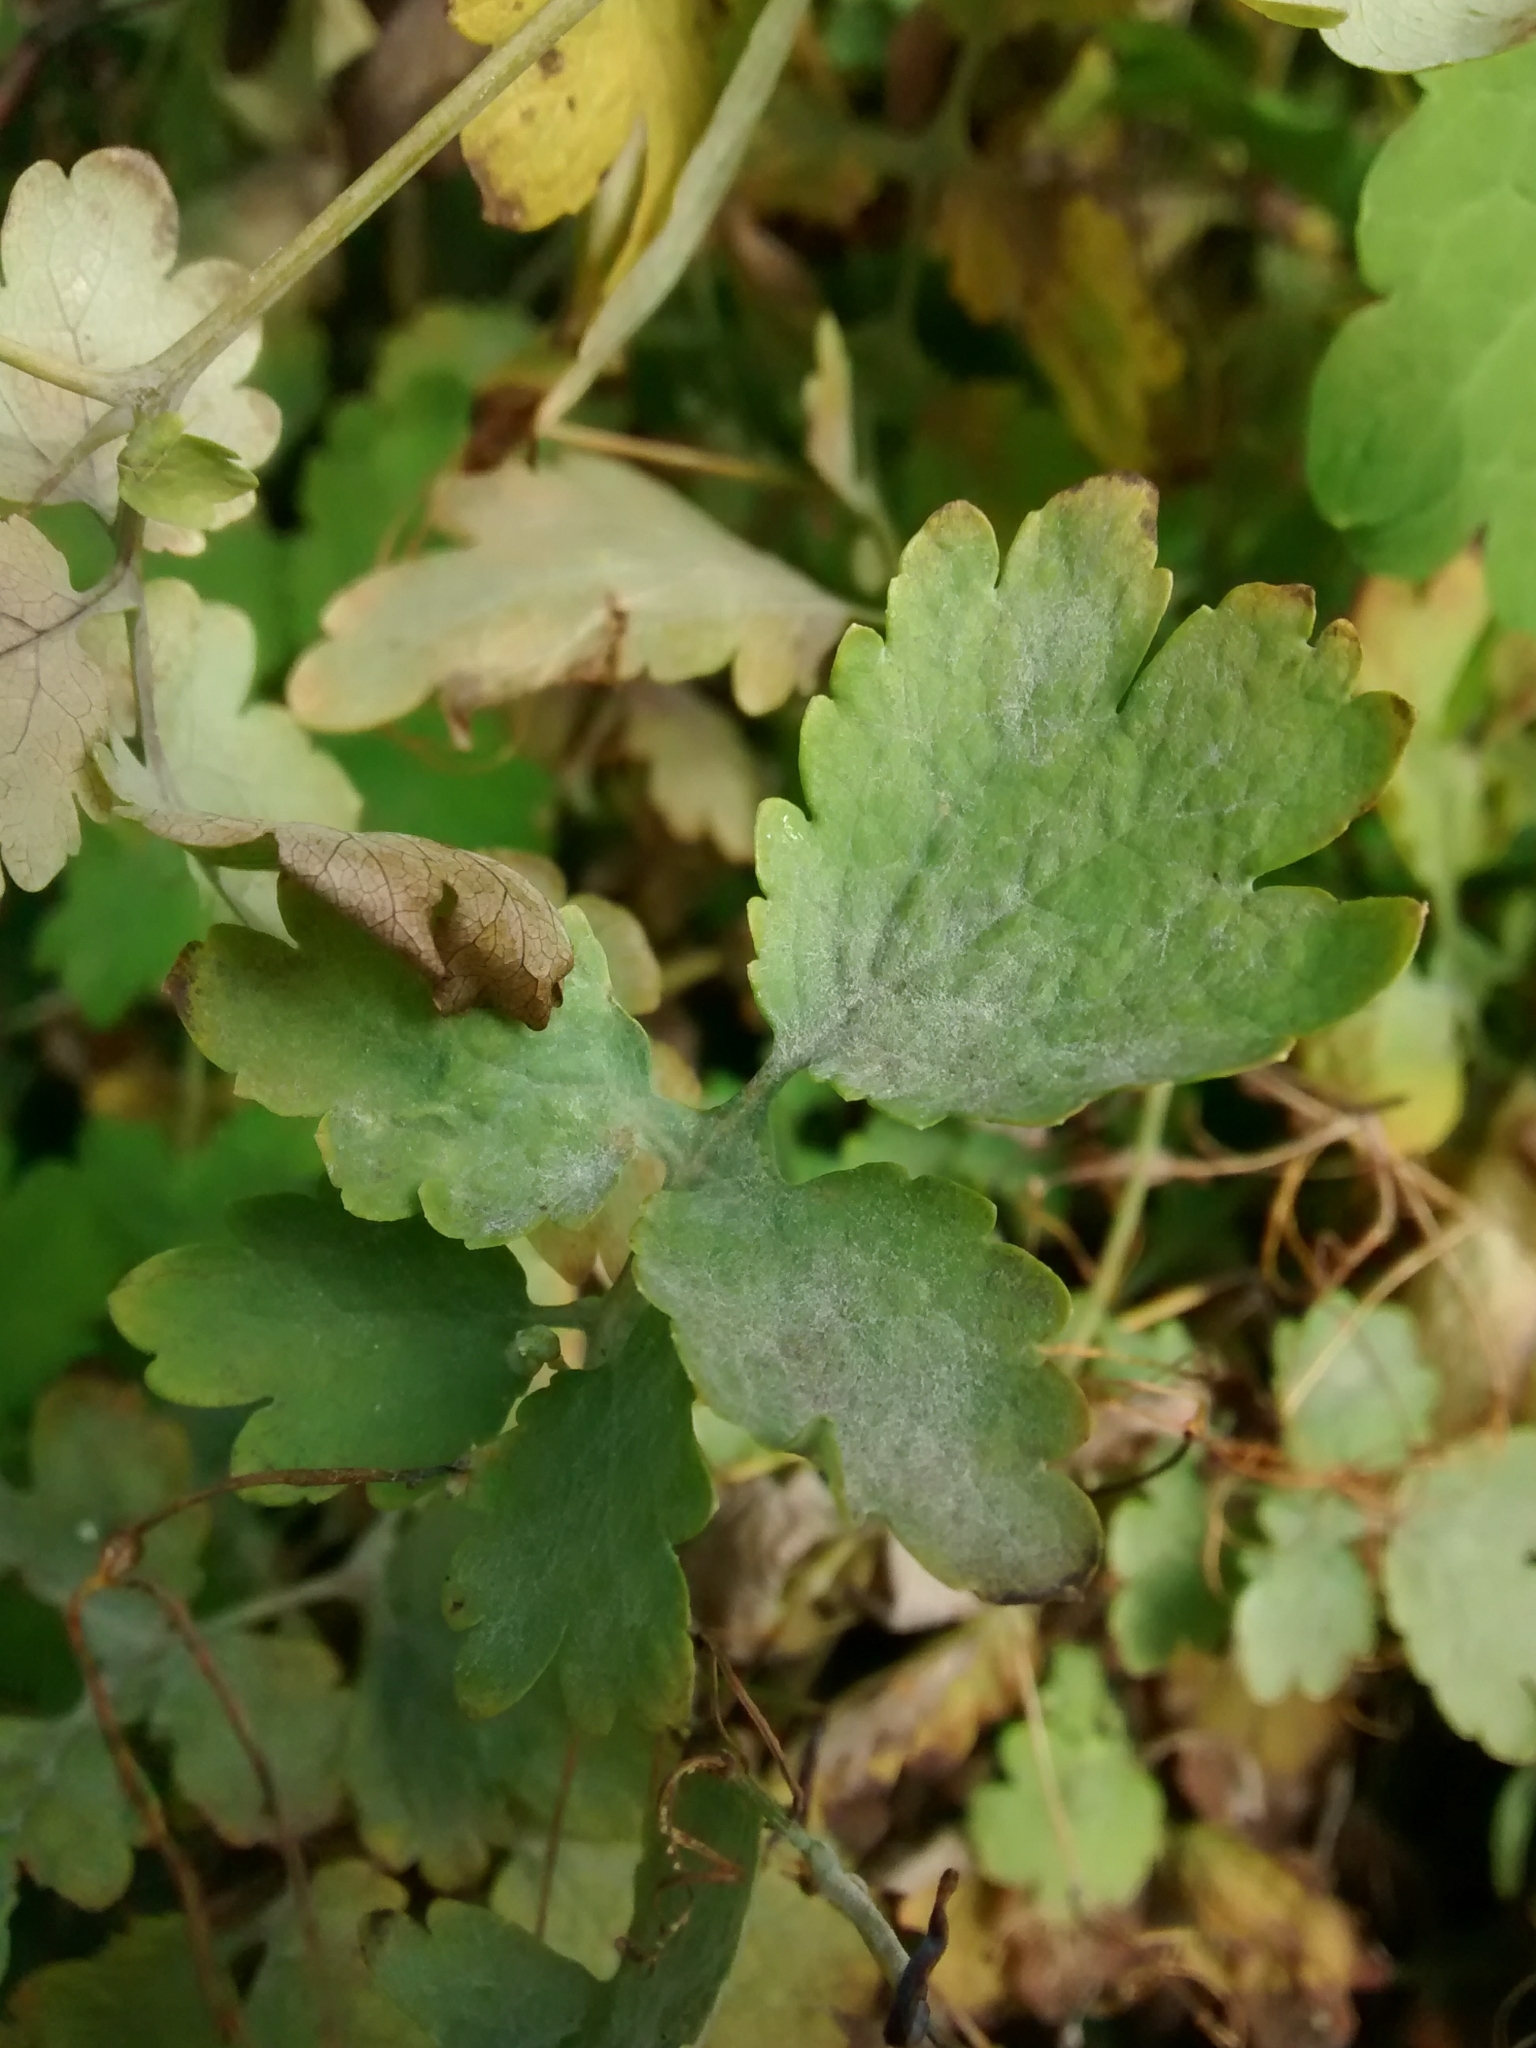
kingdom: Fungi
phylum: Ascomycota
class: Leotiomycetes
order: Helotiales
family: Erysiphaceae
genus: Erysiphe
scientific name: Erysiphe macleayae
